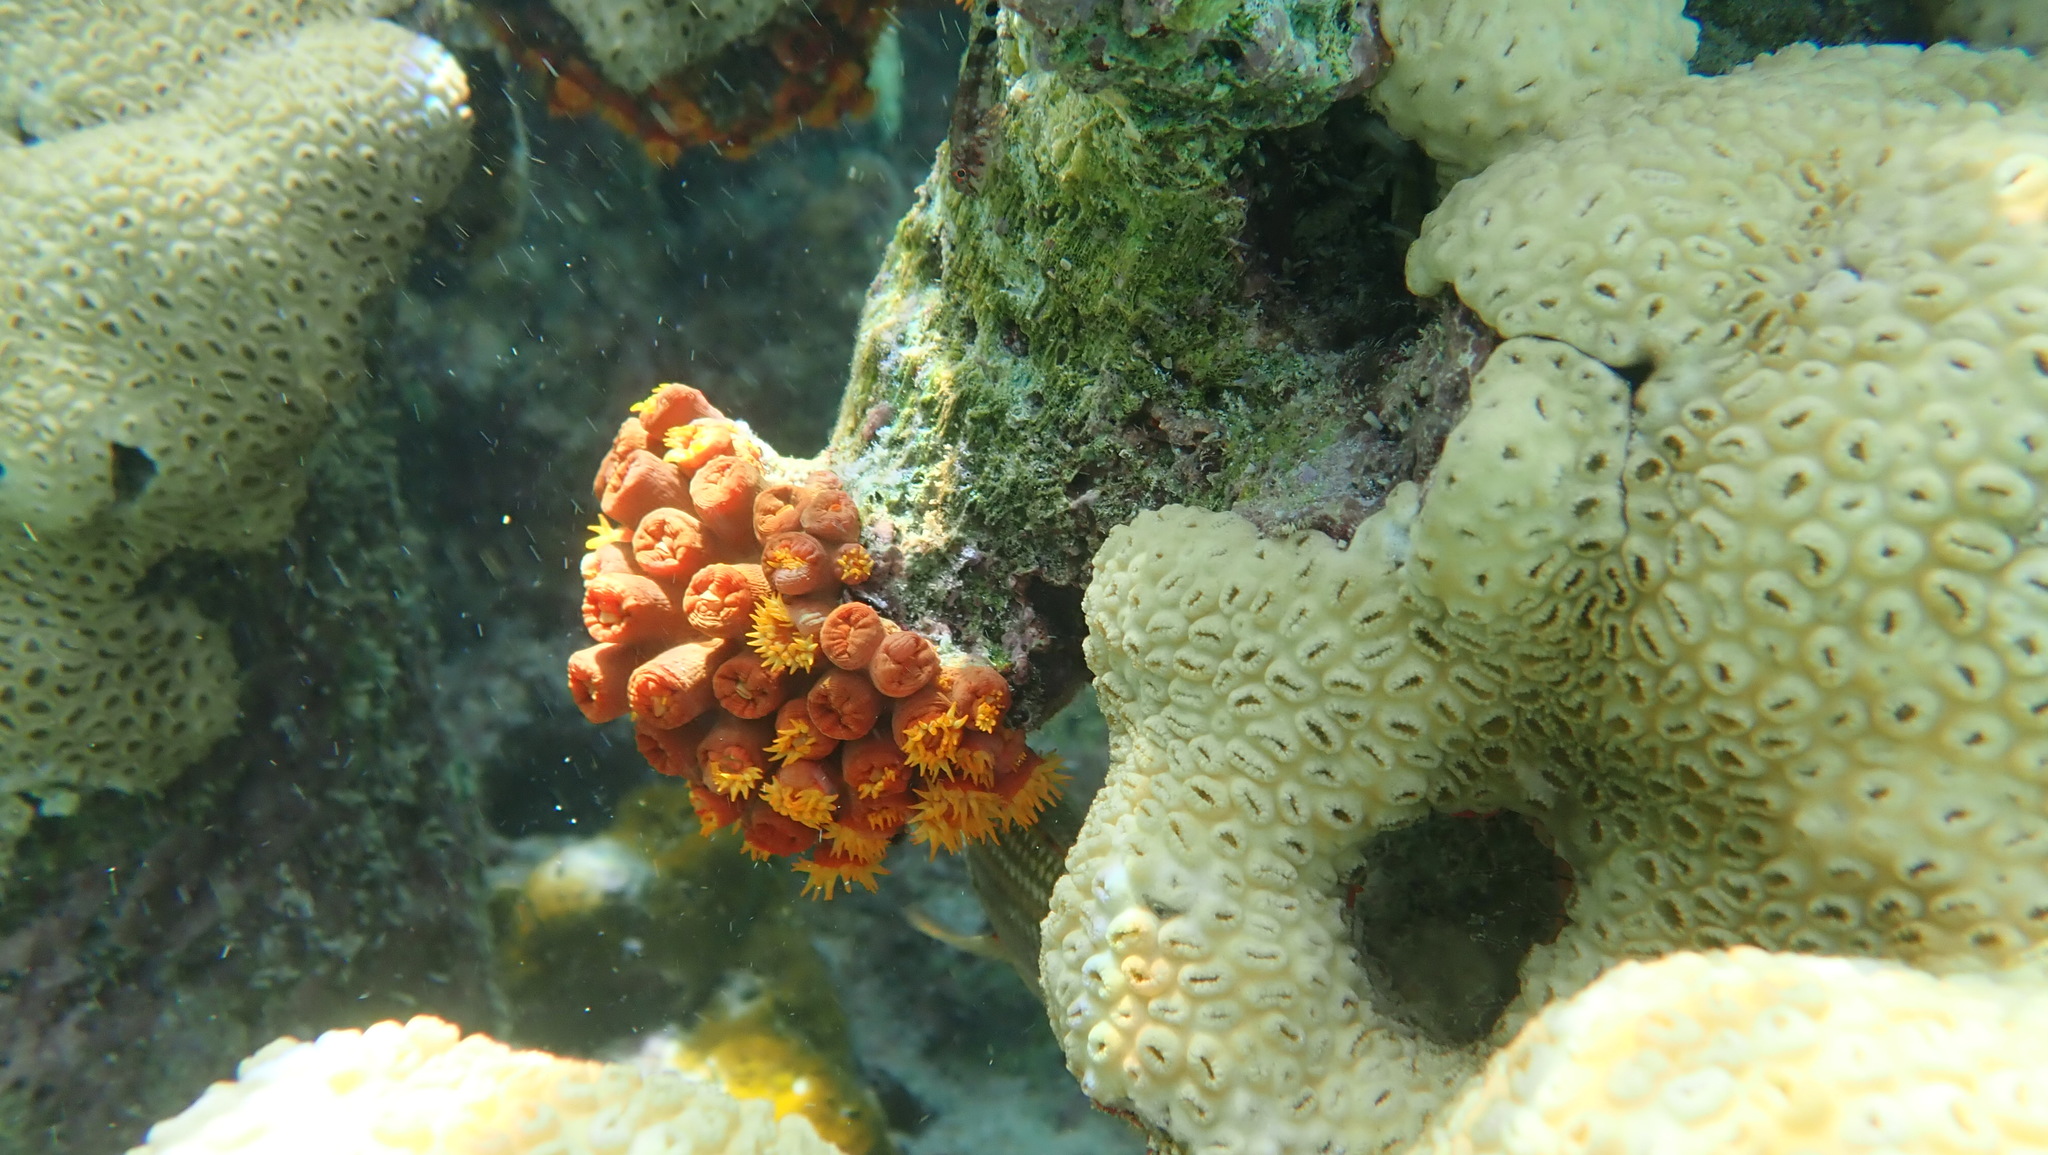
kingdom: Animalia
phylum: Cnidaria
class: Anthozoa
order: Scleractinia
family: Dendrophylliidae
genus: Tubastraea
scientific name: Tubastraea coccinea
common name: Orange cup coral
